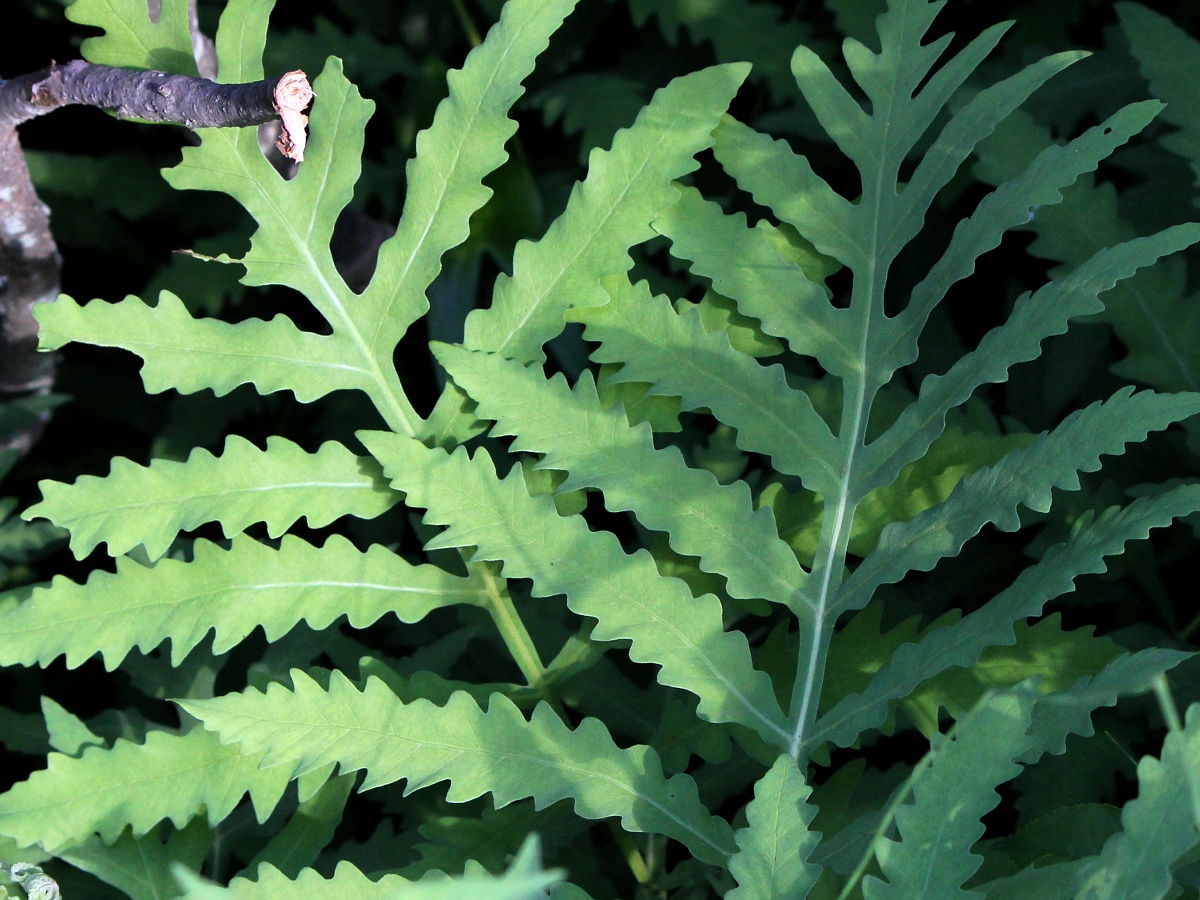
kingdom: Plantae
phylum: Tracheophyta
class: Polypodiopsida
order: Polypodiales
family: Onocleaceae
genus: Onoclea
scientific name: Onoclea sensibilis
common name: Sensitive fern
